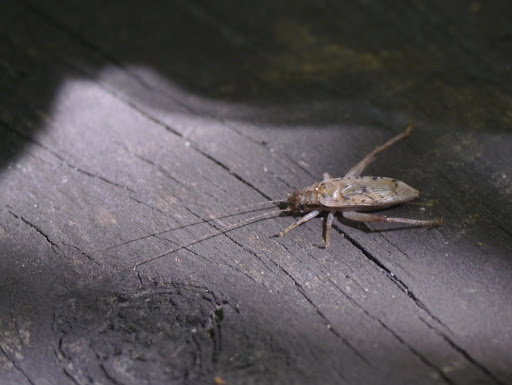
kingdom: Animalia
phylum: Arthropoda
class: Insecta
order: Orthoptera
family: Gryllidae
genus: Hapithus
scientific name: Hapithus saltator
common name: Jumping bush cricket
